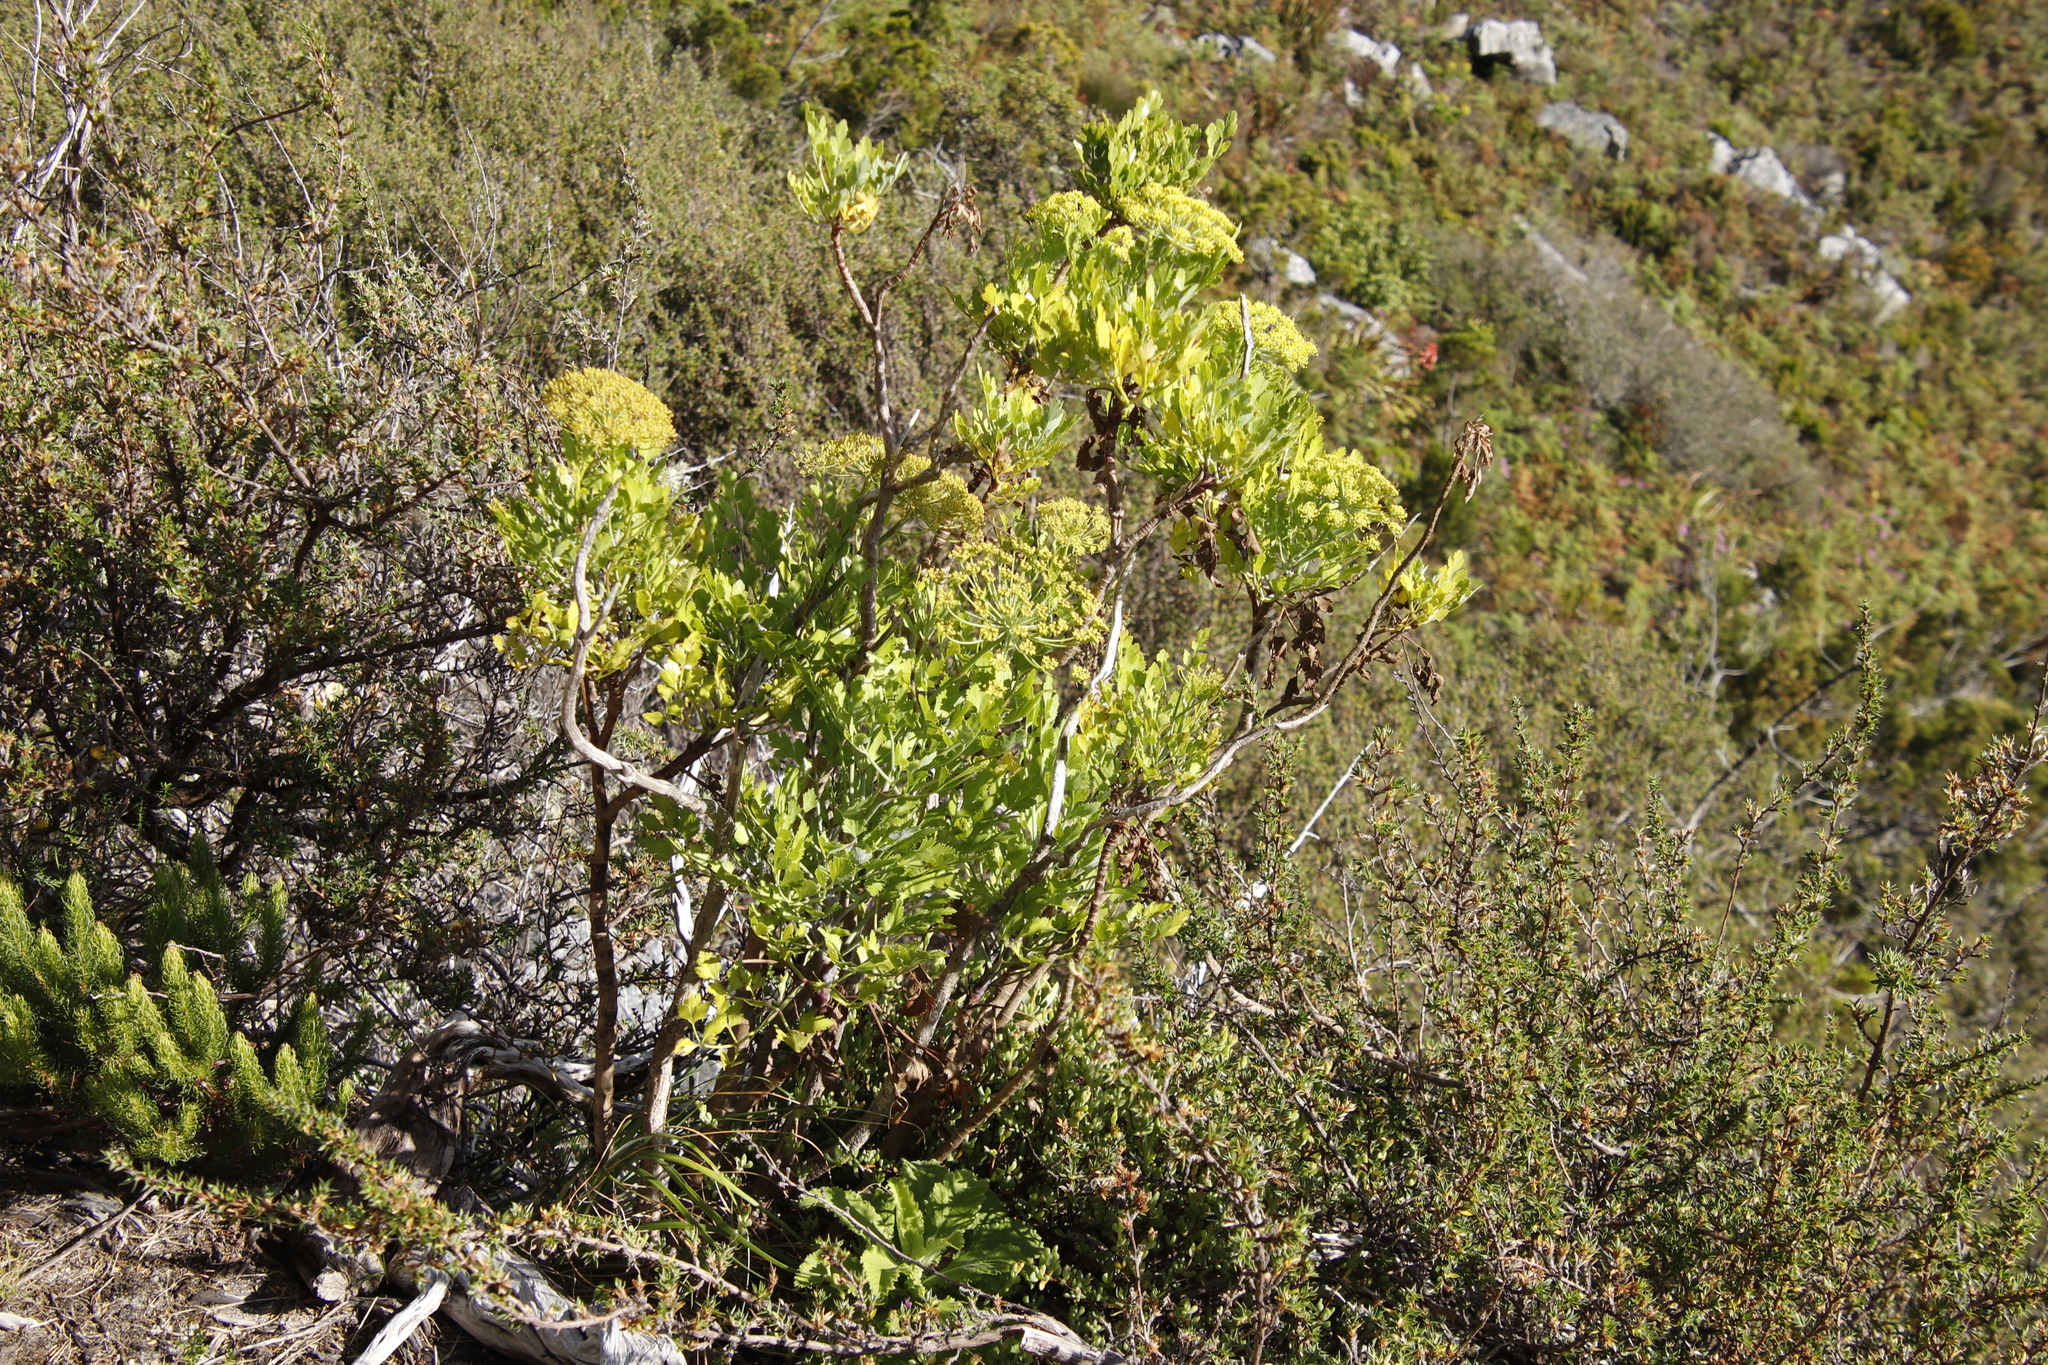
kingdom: Plantae
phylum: Tracheophyta
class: Magnoliopsida
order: Apiales
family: Apiaceae
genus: Notobubon
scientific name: Notobubon galbanum
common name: Blisterbush
